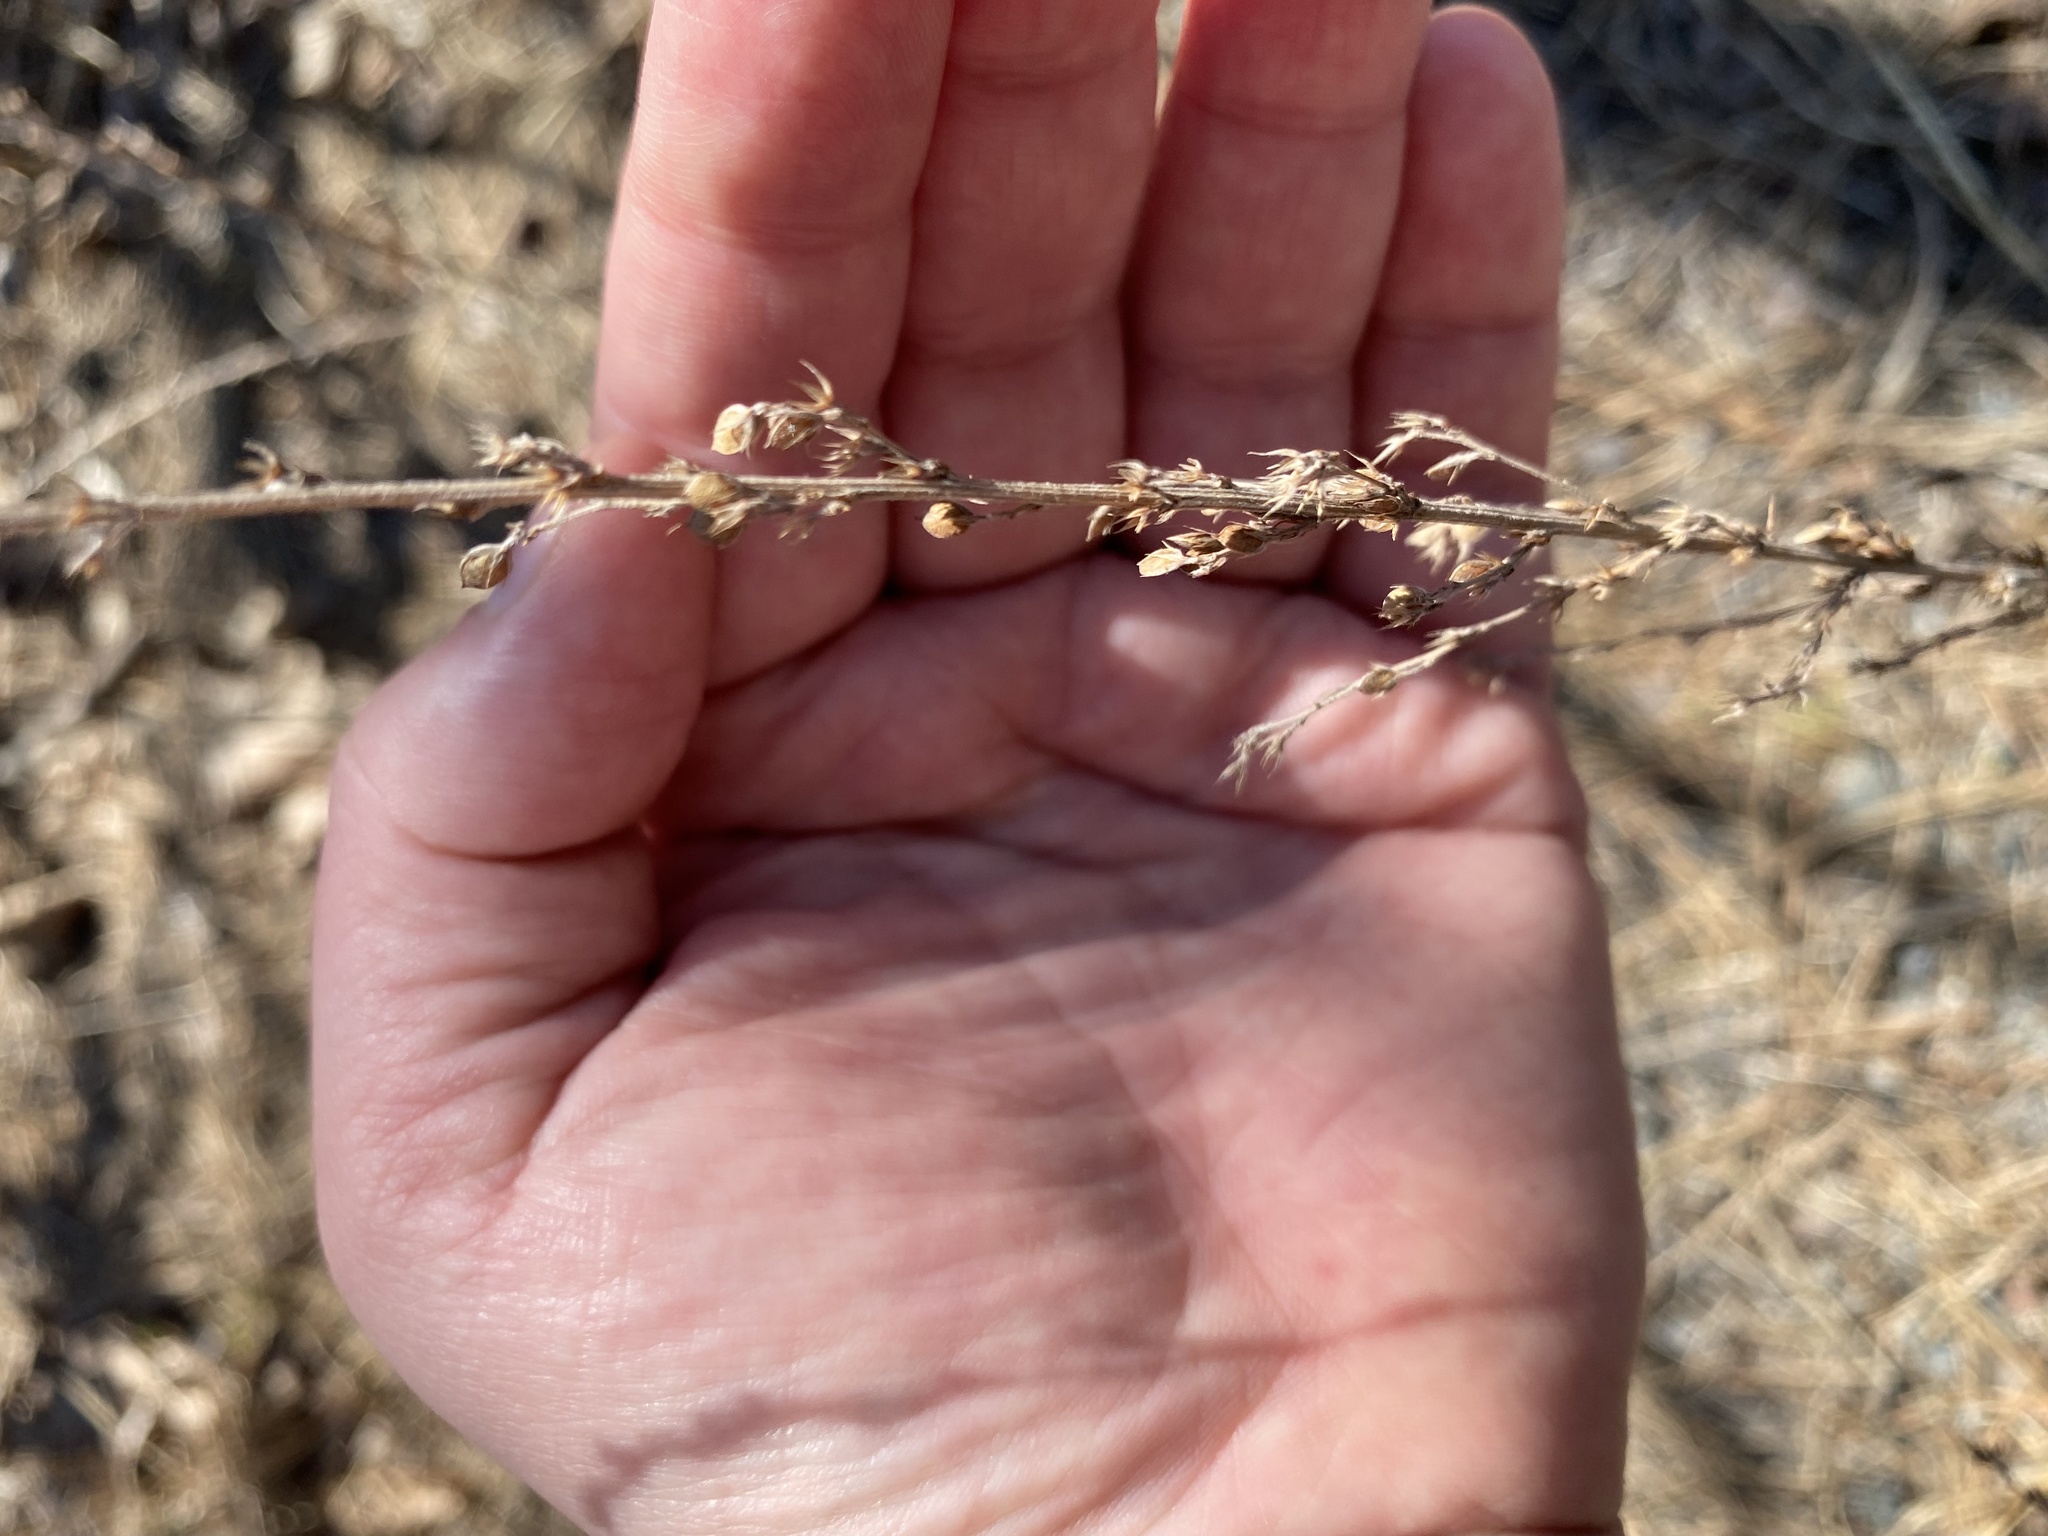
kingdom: Plantae
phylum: Tracheophyta
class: Magnoliopsida
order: Fabales
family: Fabaceae
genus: Lespedeza
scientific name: Lespedeza cuneata
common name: Chinese bush-clover
